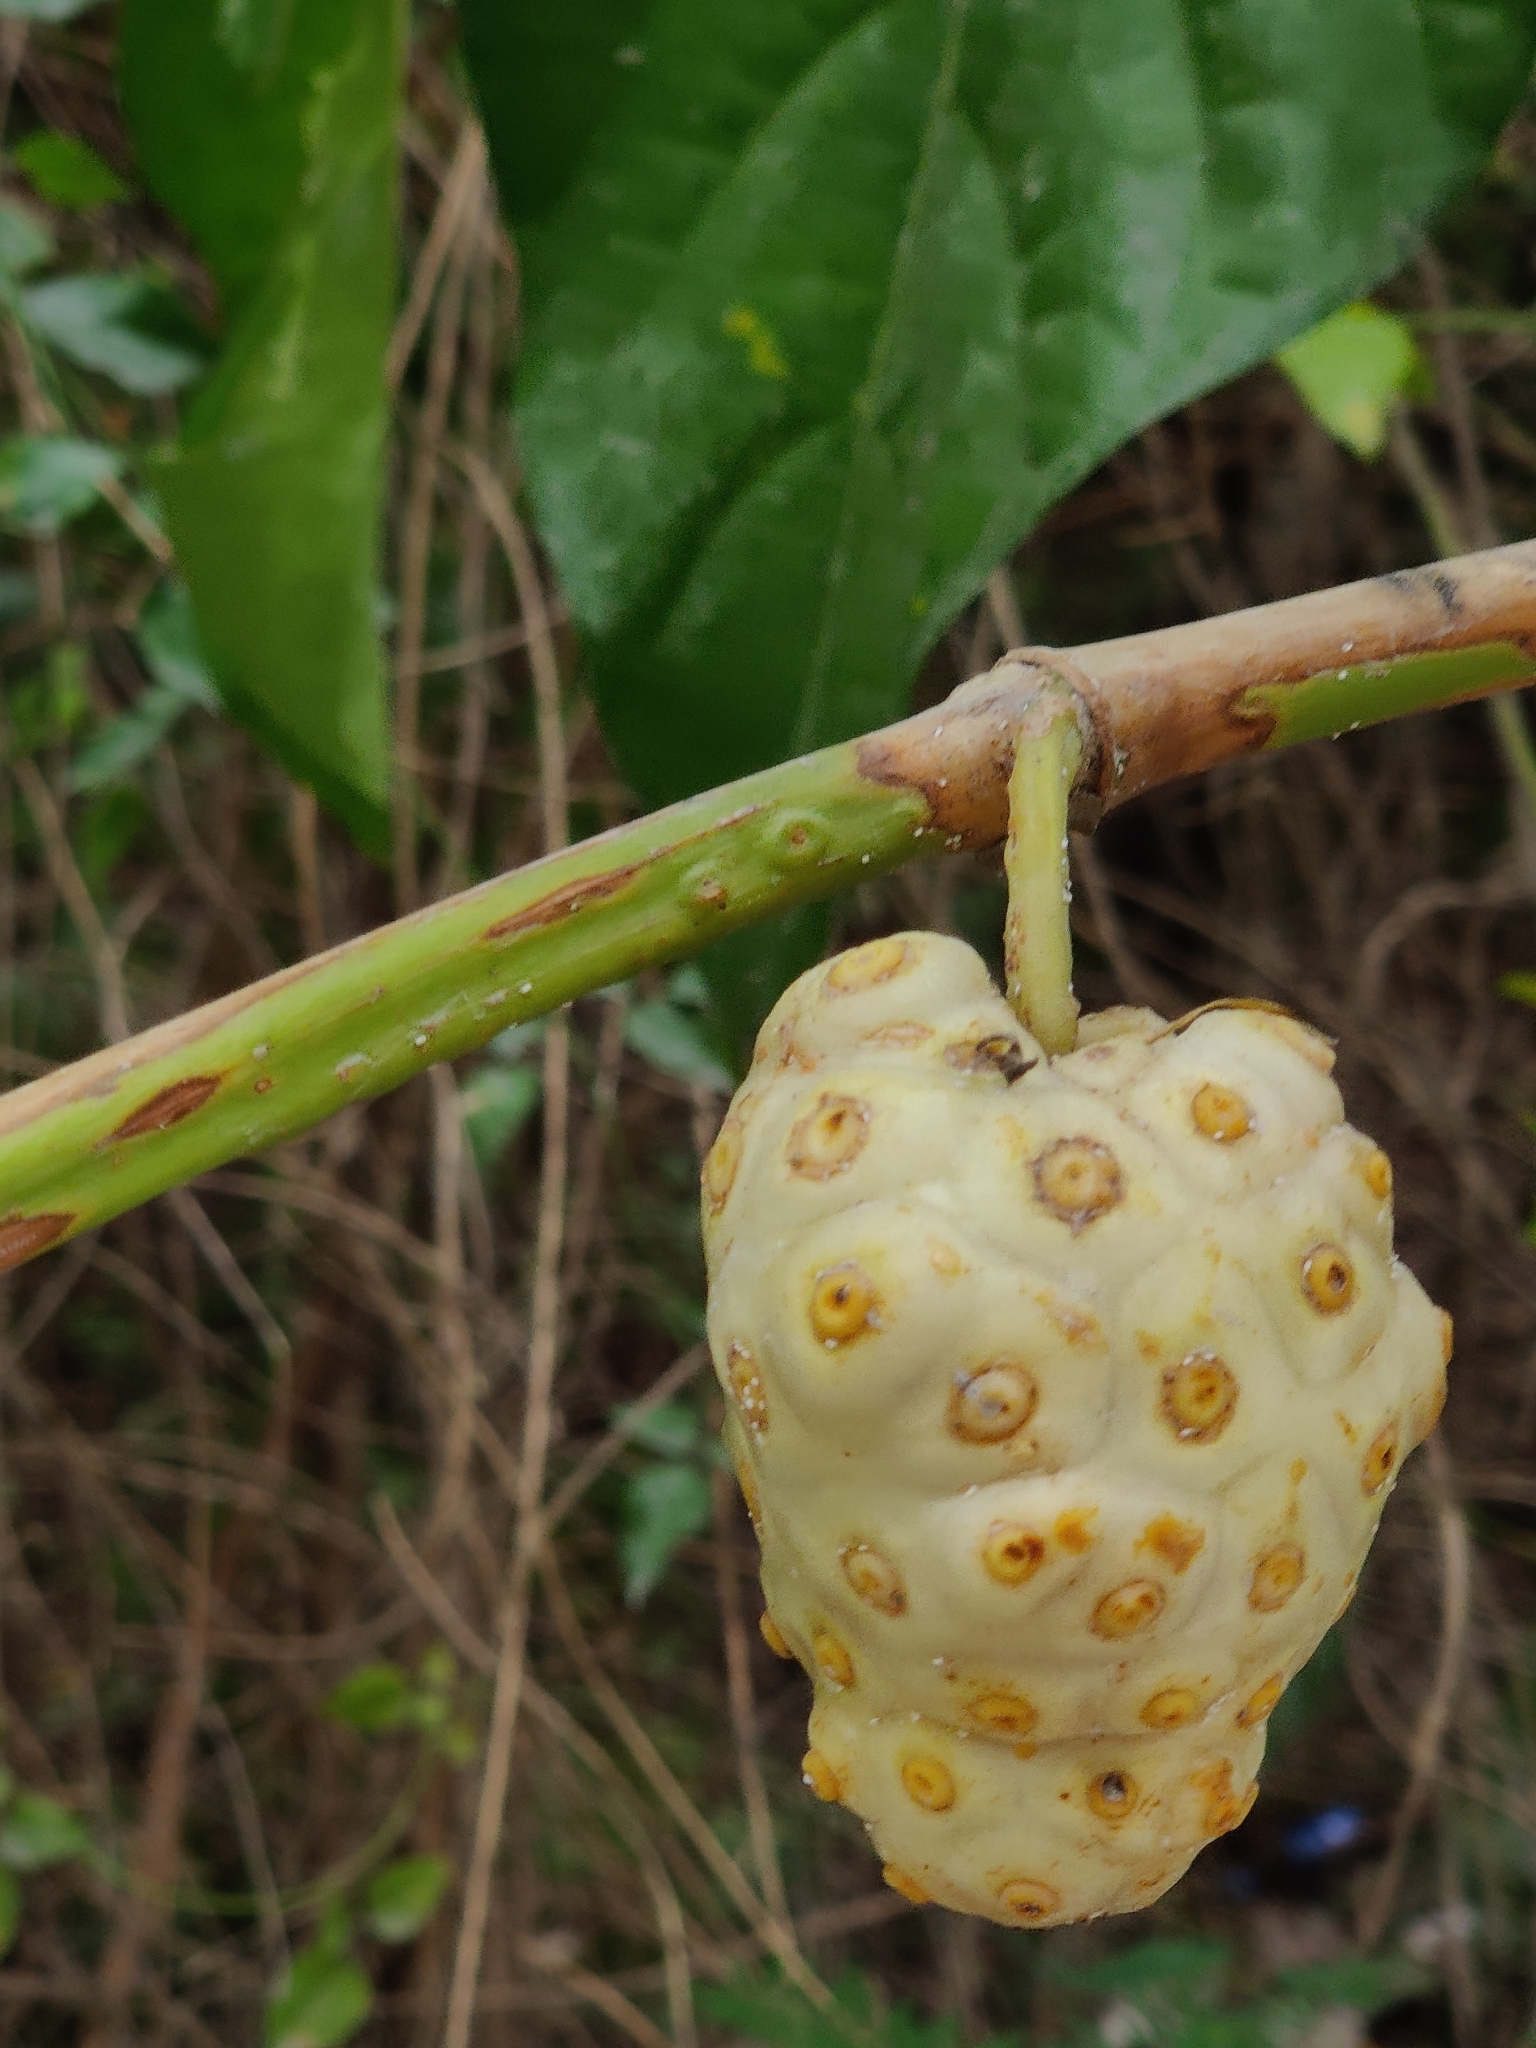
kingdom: Plantae
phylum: Tracheophyta
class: Magnoliopsida
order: Gentianales
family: Rubiaceae
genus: Morinda
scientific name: Morinda citrifolia
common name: Indian-mulberry
